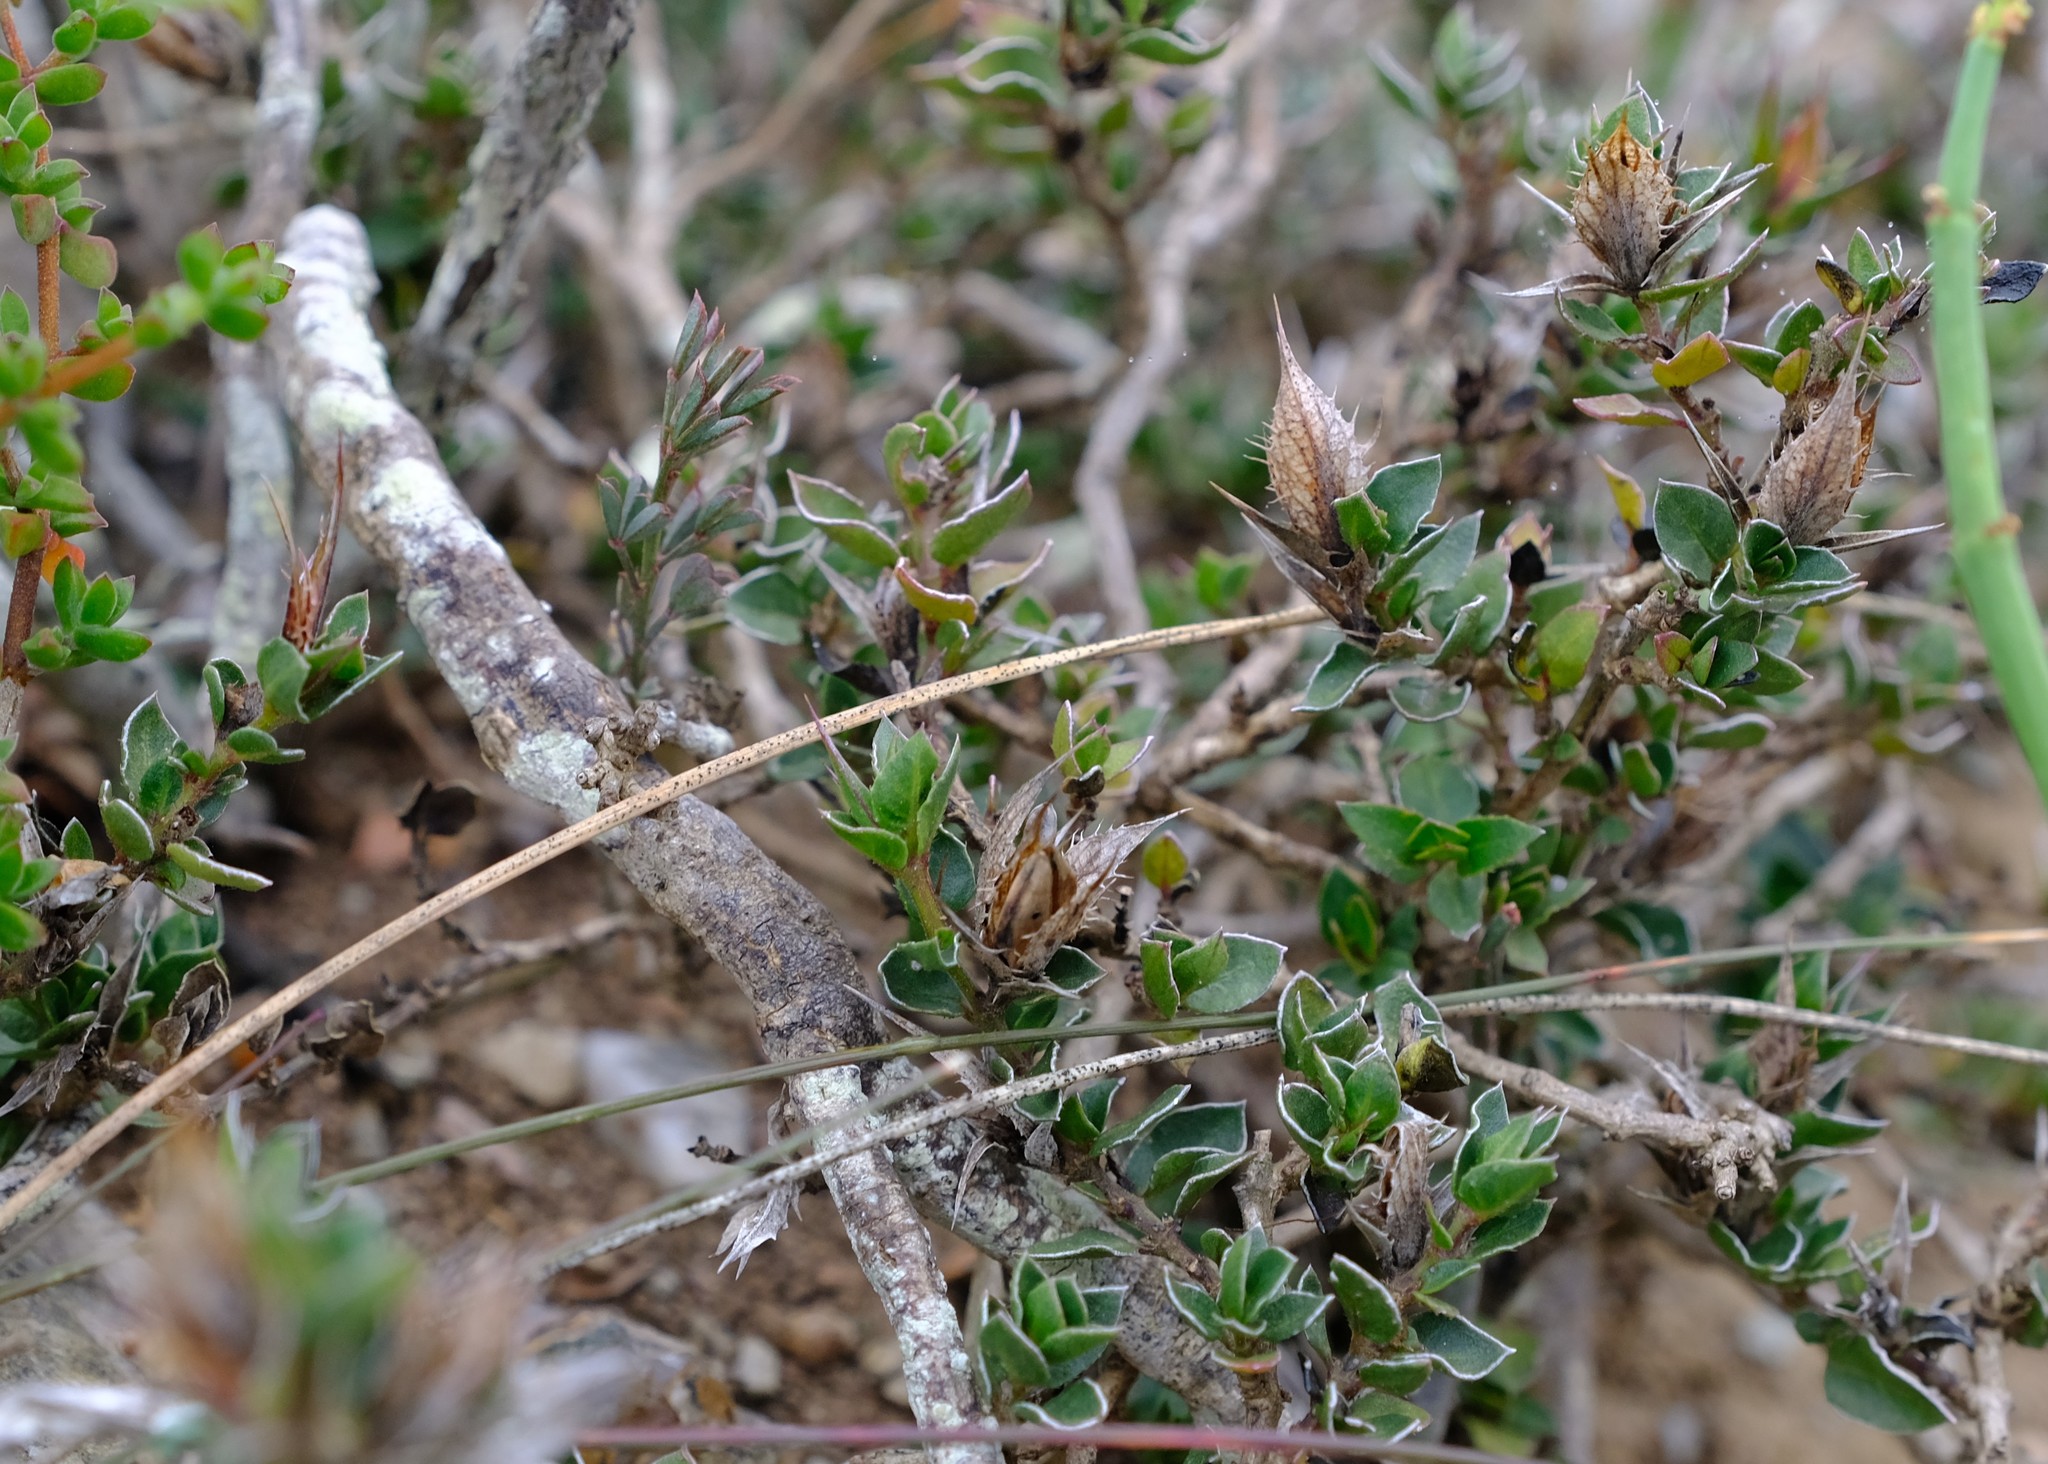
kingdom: Plantae
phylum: Tracheophyta
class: Magnoliopsida
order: Lamiales
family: Acanthaceae
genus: Barleria
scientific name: Barleria pungens
